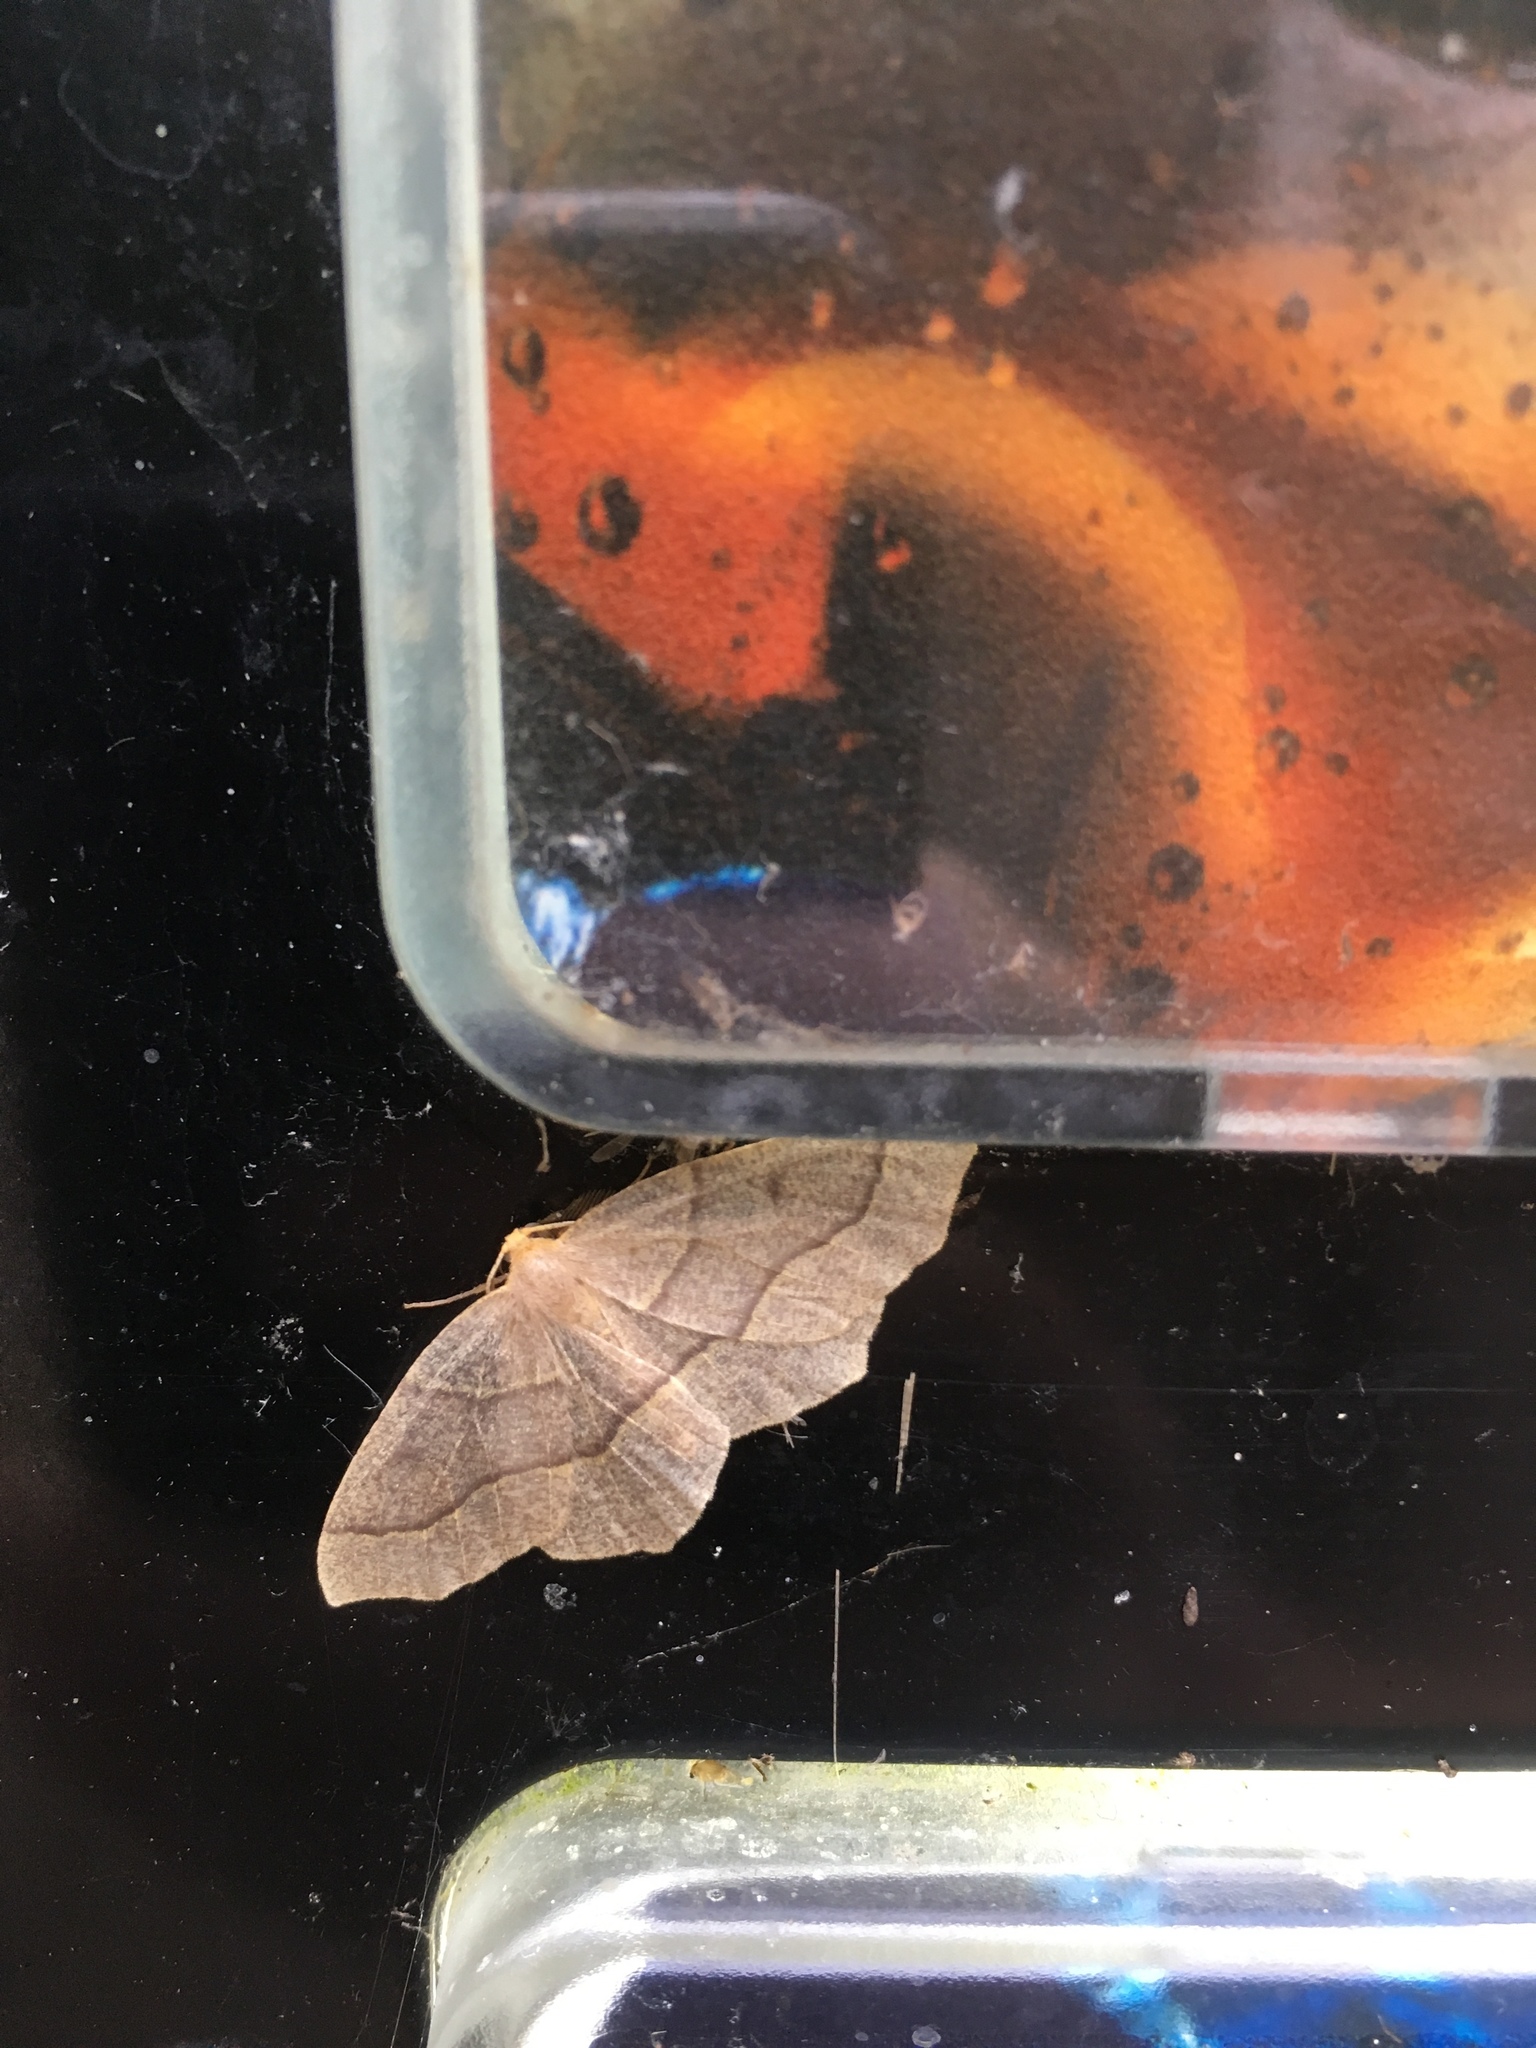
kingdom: Animalia
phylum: Arthropoda
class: Insecta
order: Lepidoptera
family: Geometridae
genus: Lambdina
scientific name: Lambdina fiscellaria
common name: Hemlock looper
